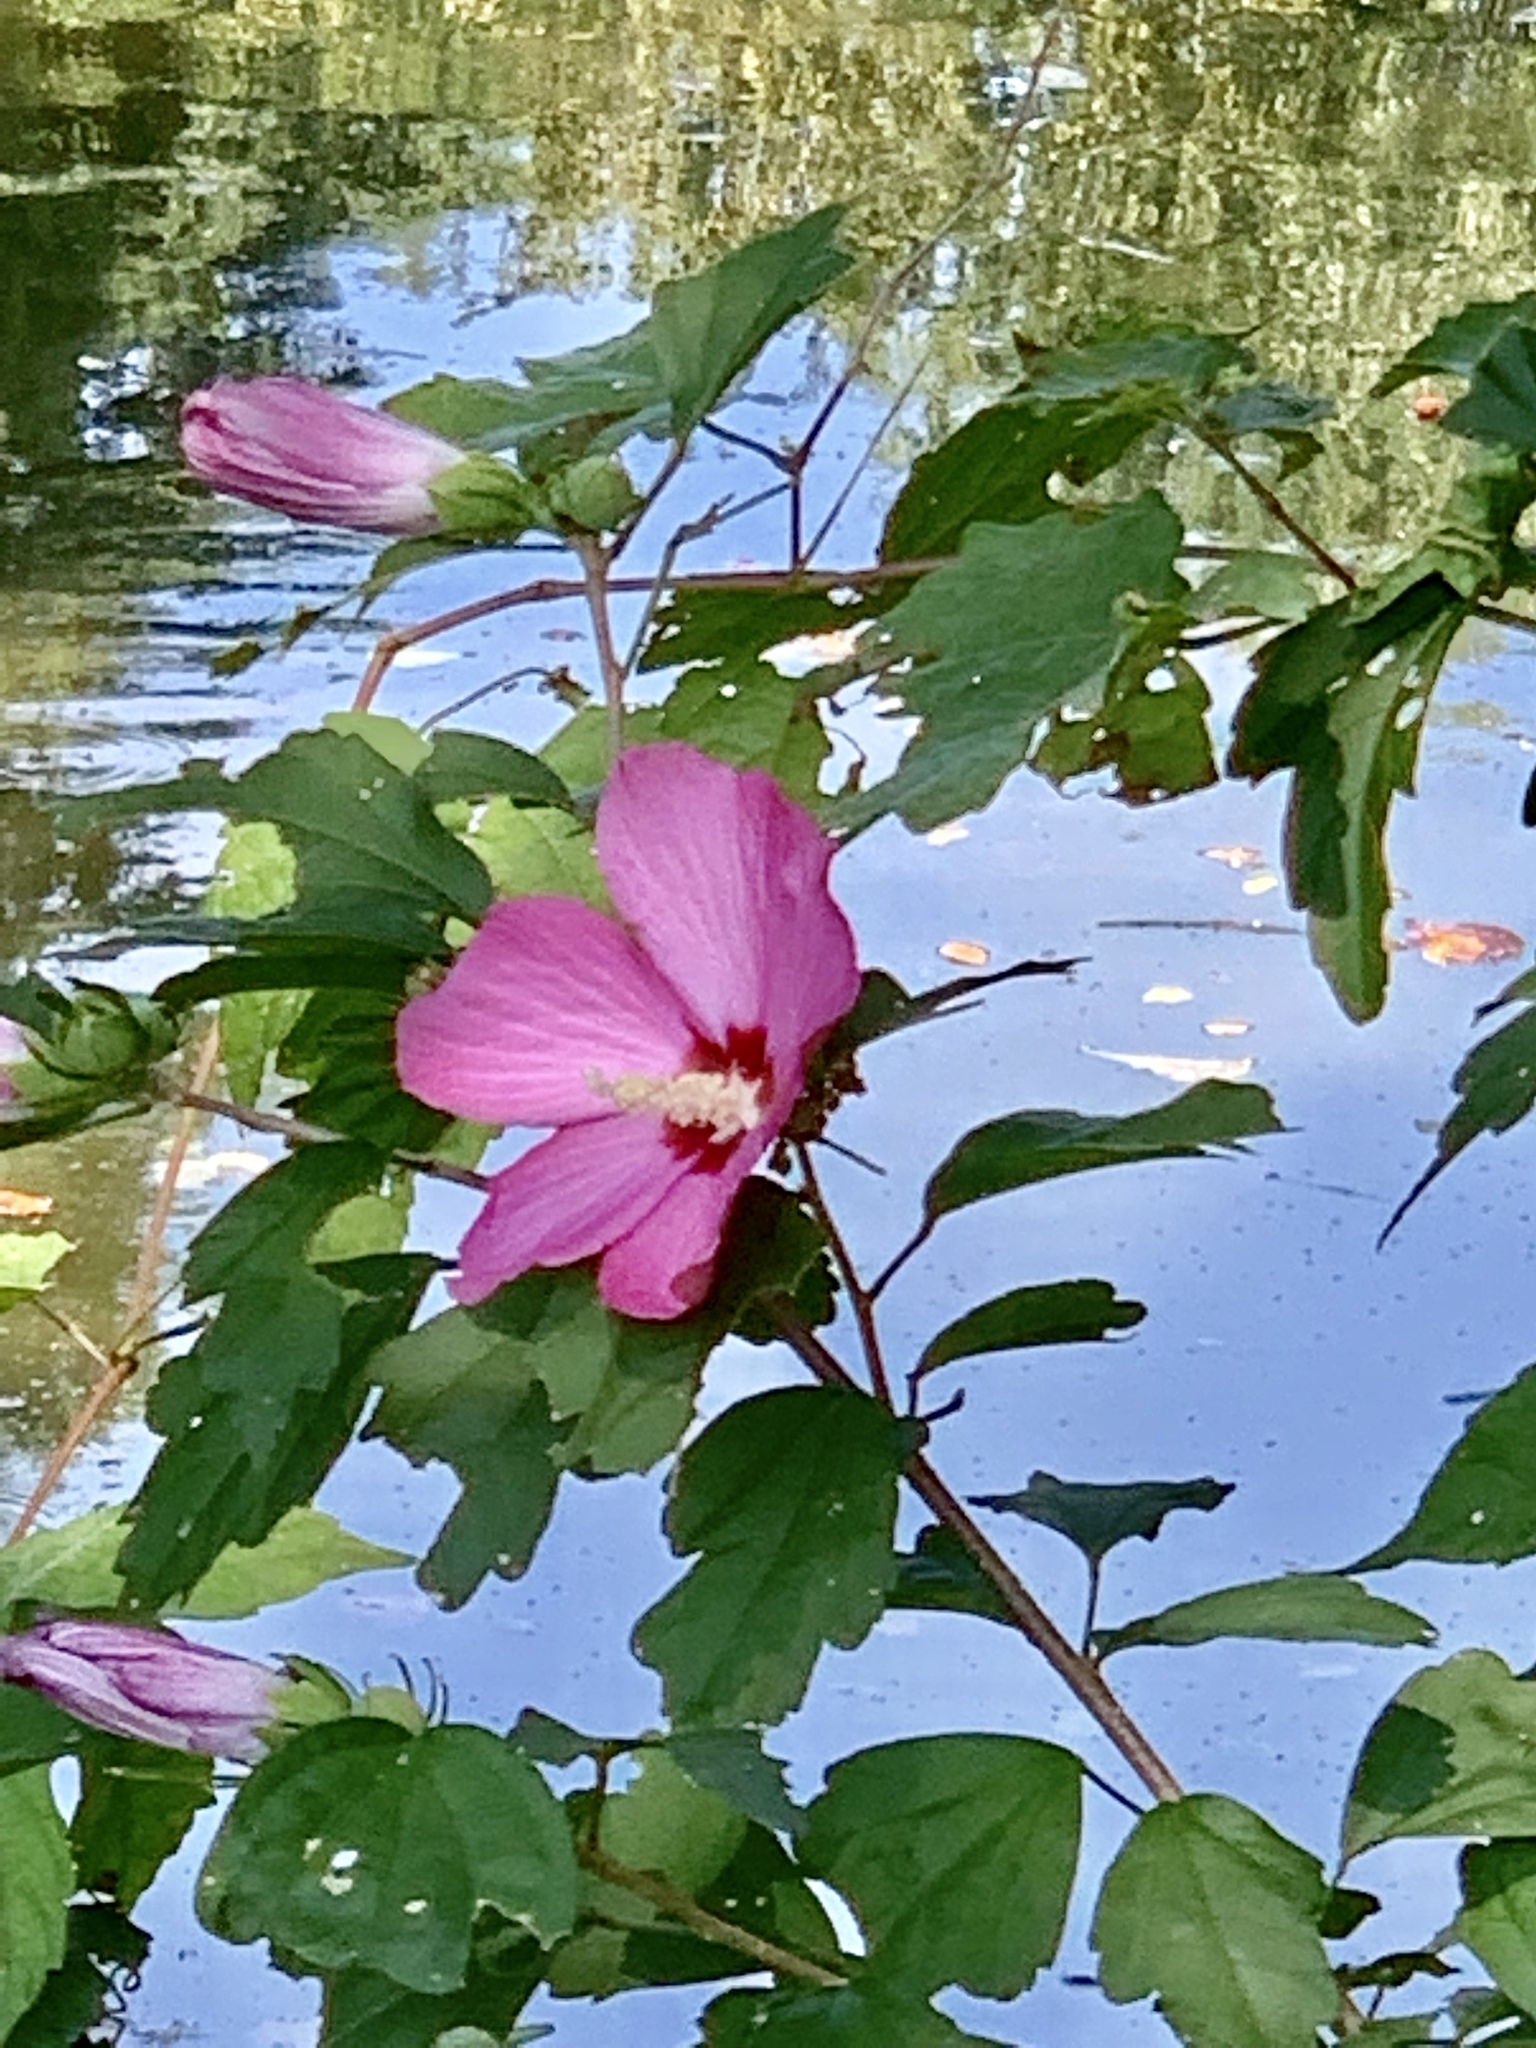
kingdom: Plantae
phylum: Tracheophyta
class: Magnoliopsida
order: Malvales
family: Malvaceae
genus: Hibiscus
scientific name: Hibiscus syriacus
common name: Syrian ketmia
